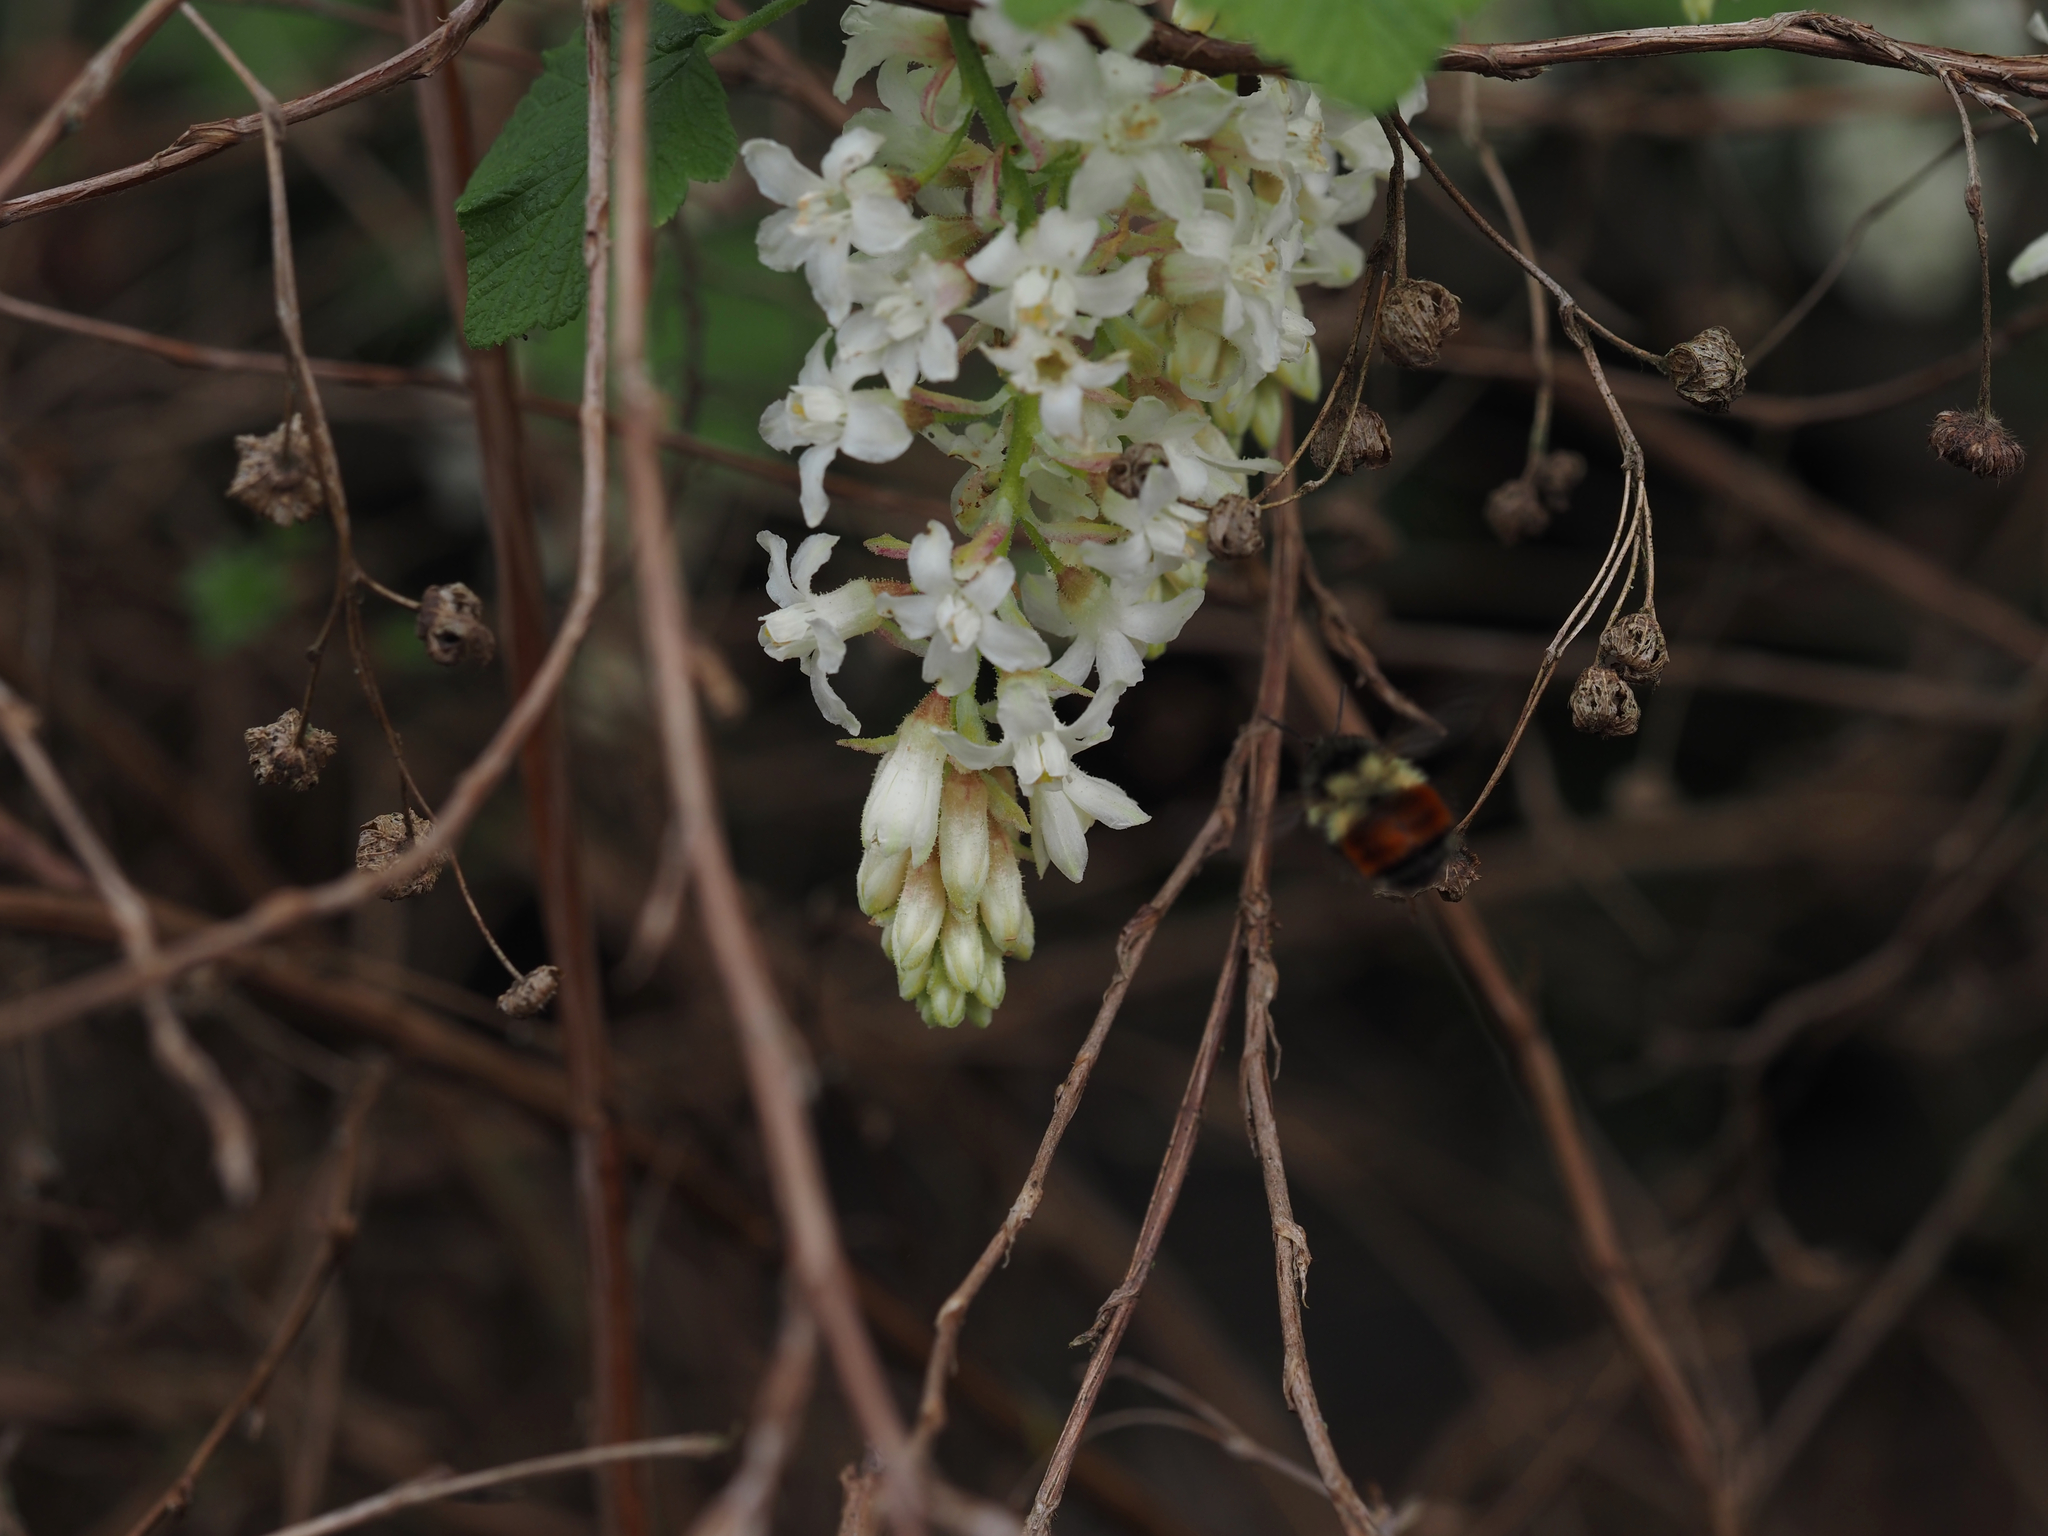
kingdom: Animalia
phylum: Arthropoda
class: Insecta
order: Hymenoptera
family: Apidae
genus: Bombus
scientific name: Bombus melanopygus
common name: Black tail bumble bee
